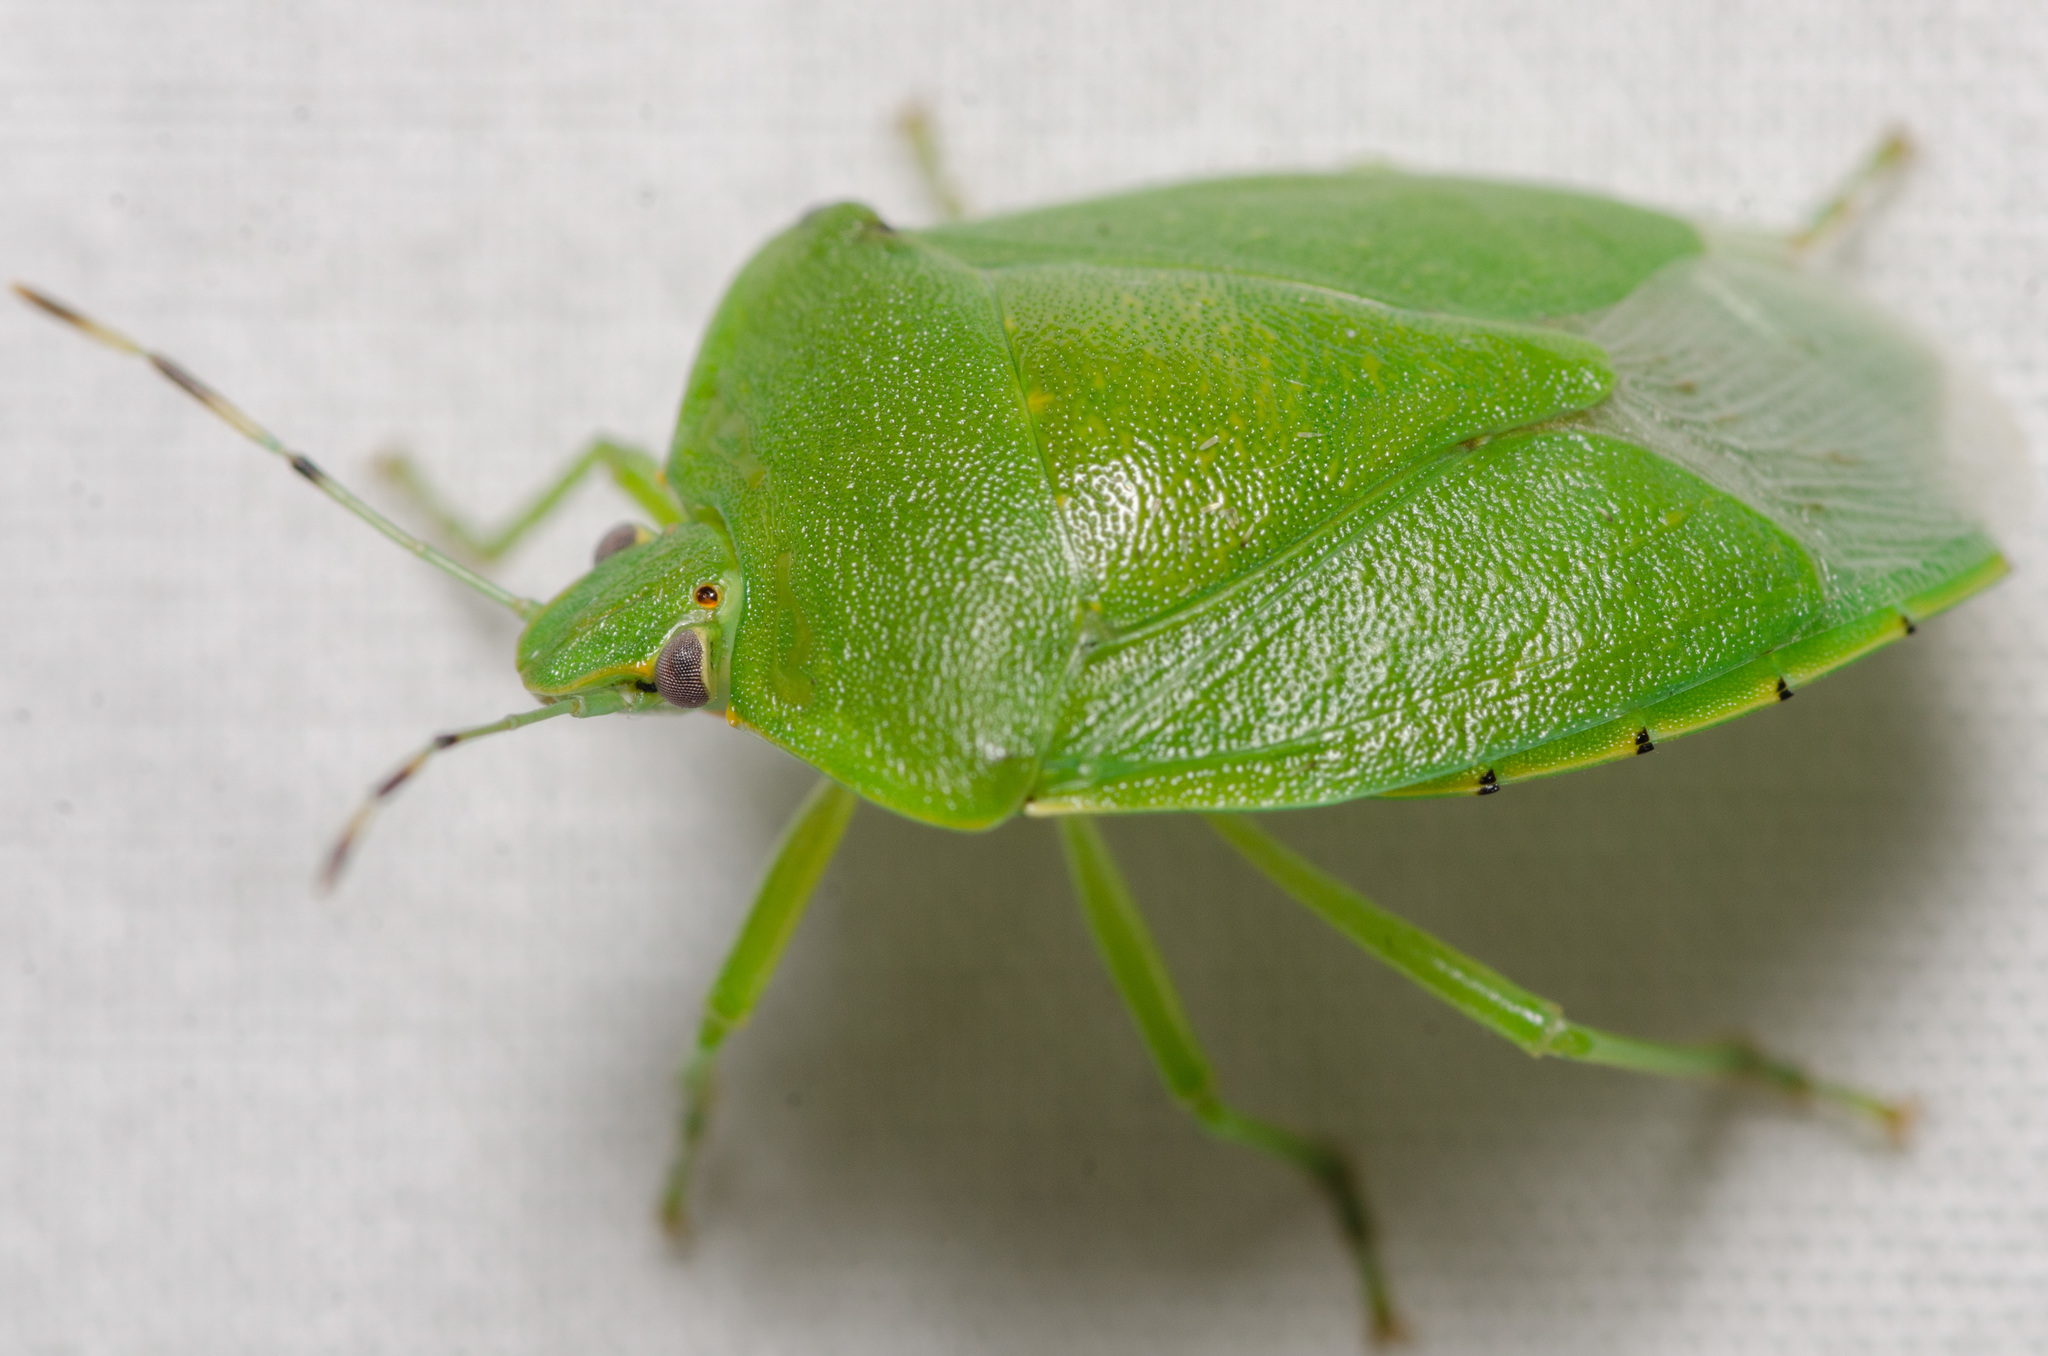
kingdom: Animalia
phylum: Arthropoda
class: Insecta
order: Hemiptera
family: Pentatomidae
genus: Chinavia
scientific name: Chinavia hilaris
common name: Green stink bug
